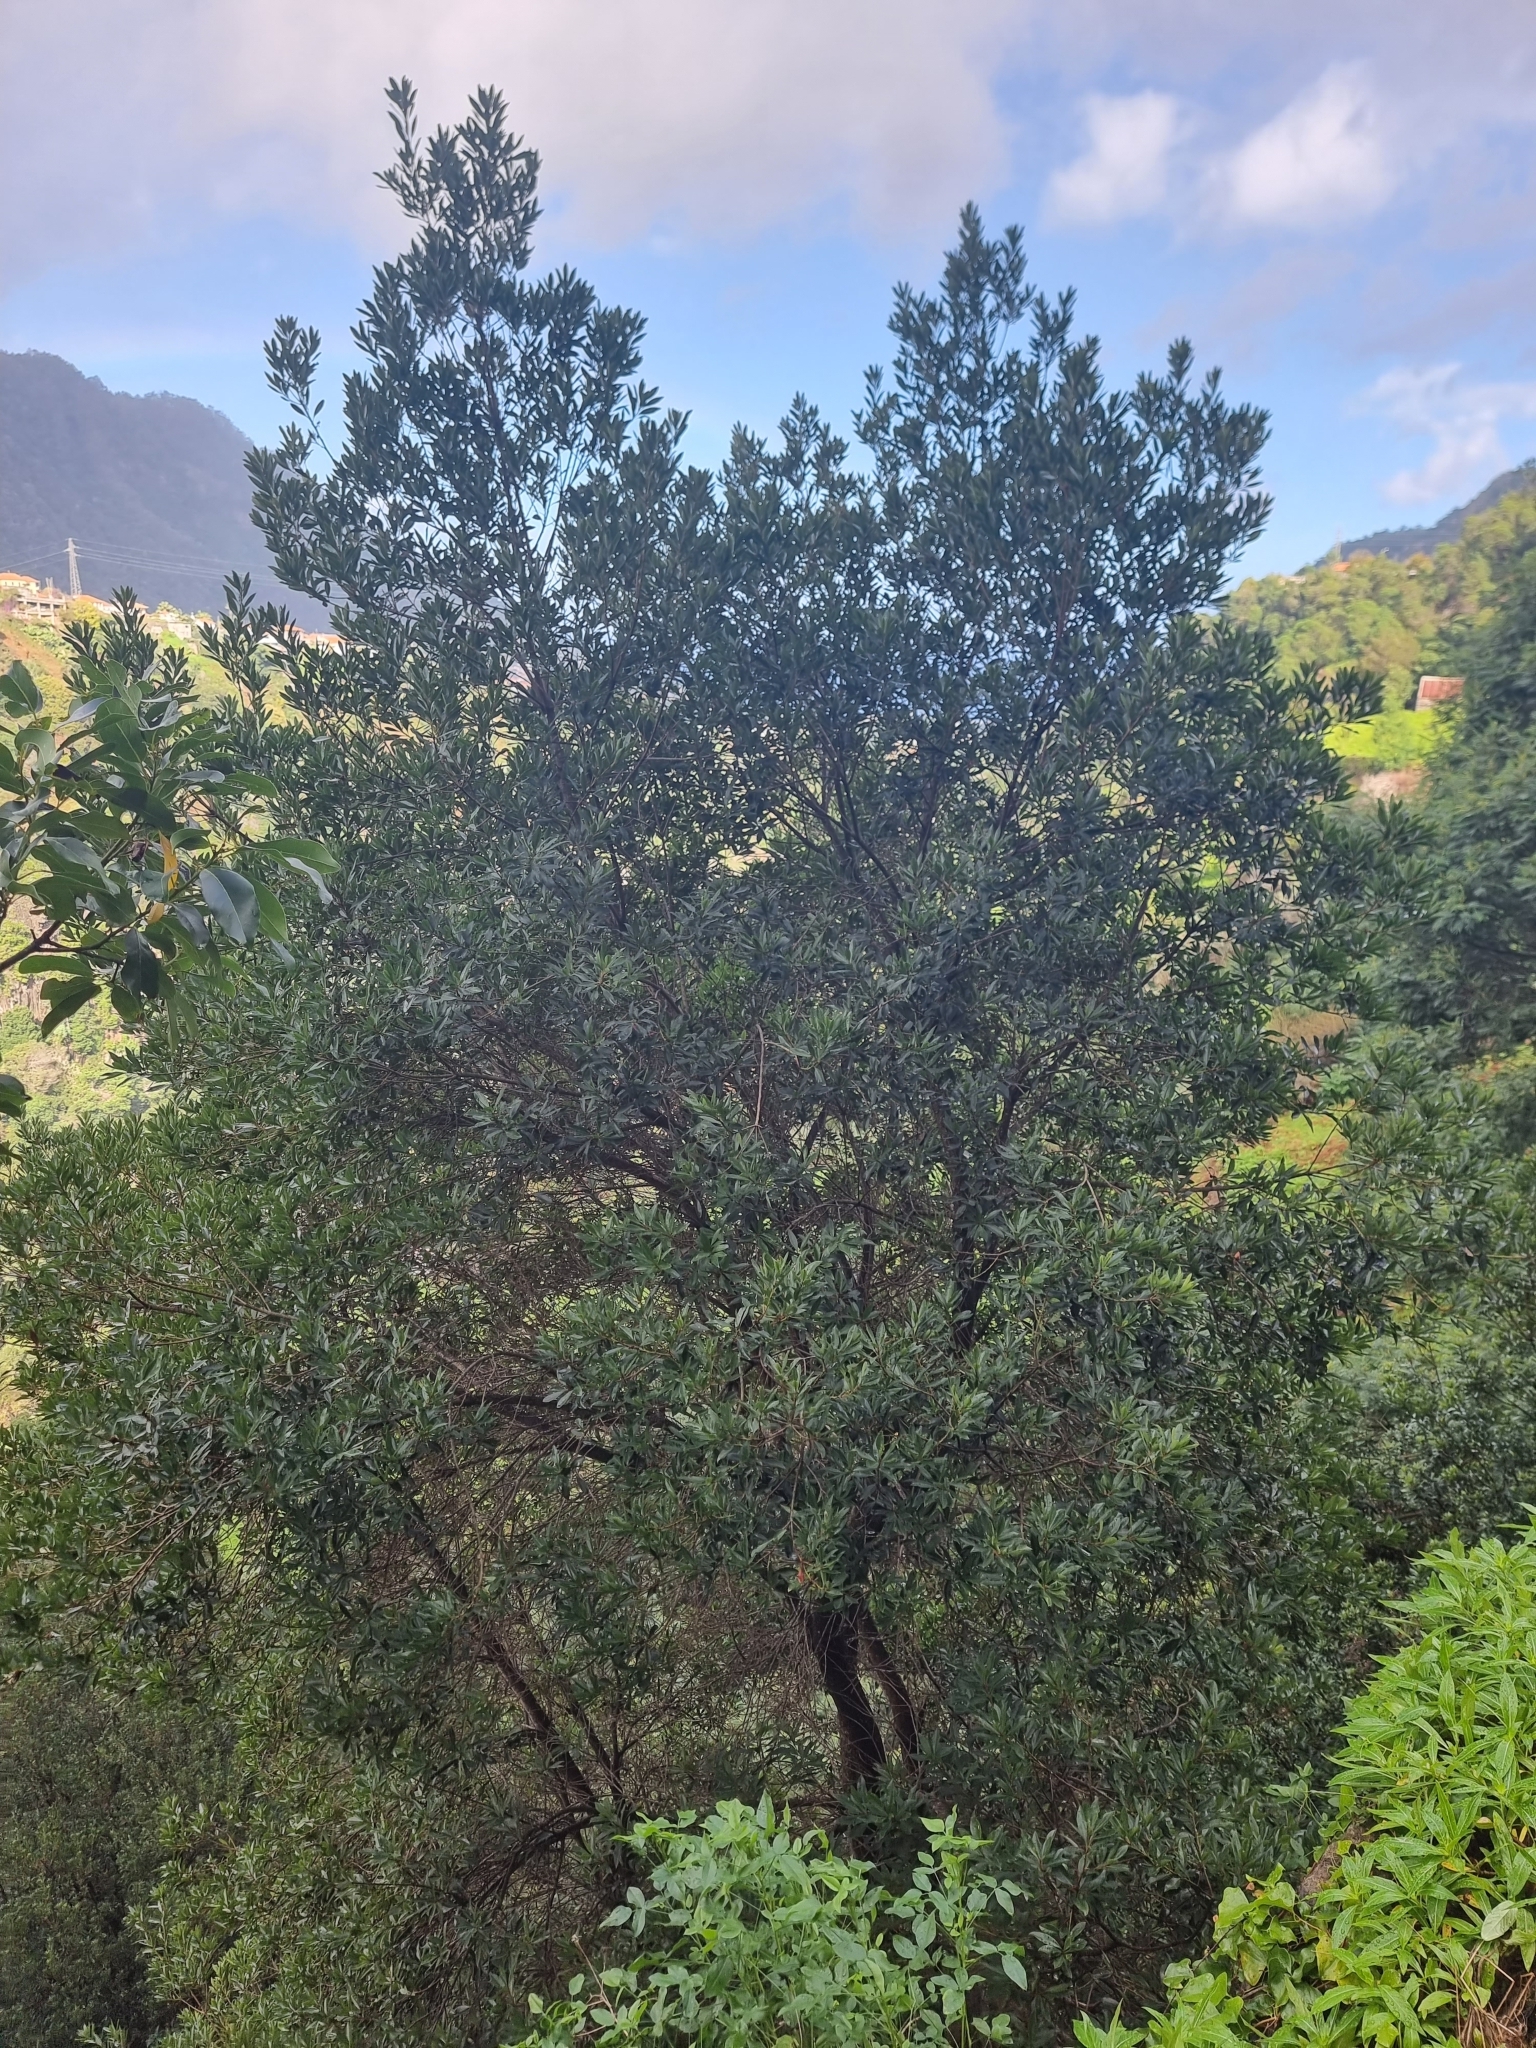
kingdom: Plantae
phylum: Tracheophyta
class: Magnoliopsida
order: Fagales
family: Myricaceae
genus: Morella
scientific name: Morella faya
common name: Firetree
